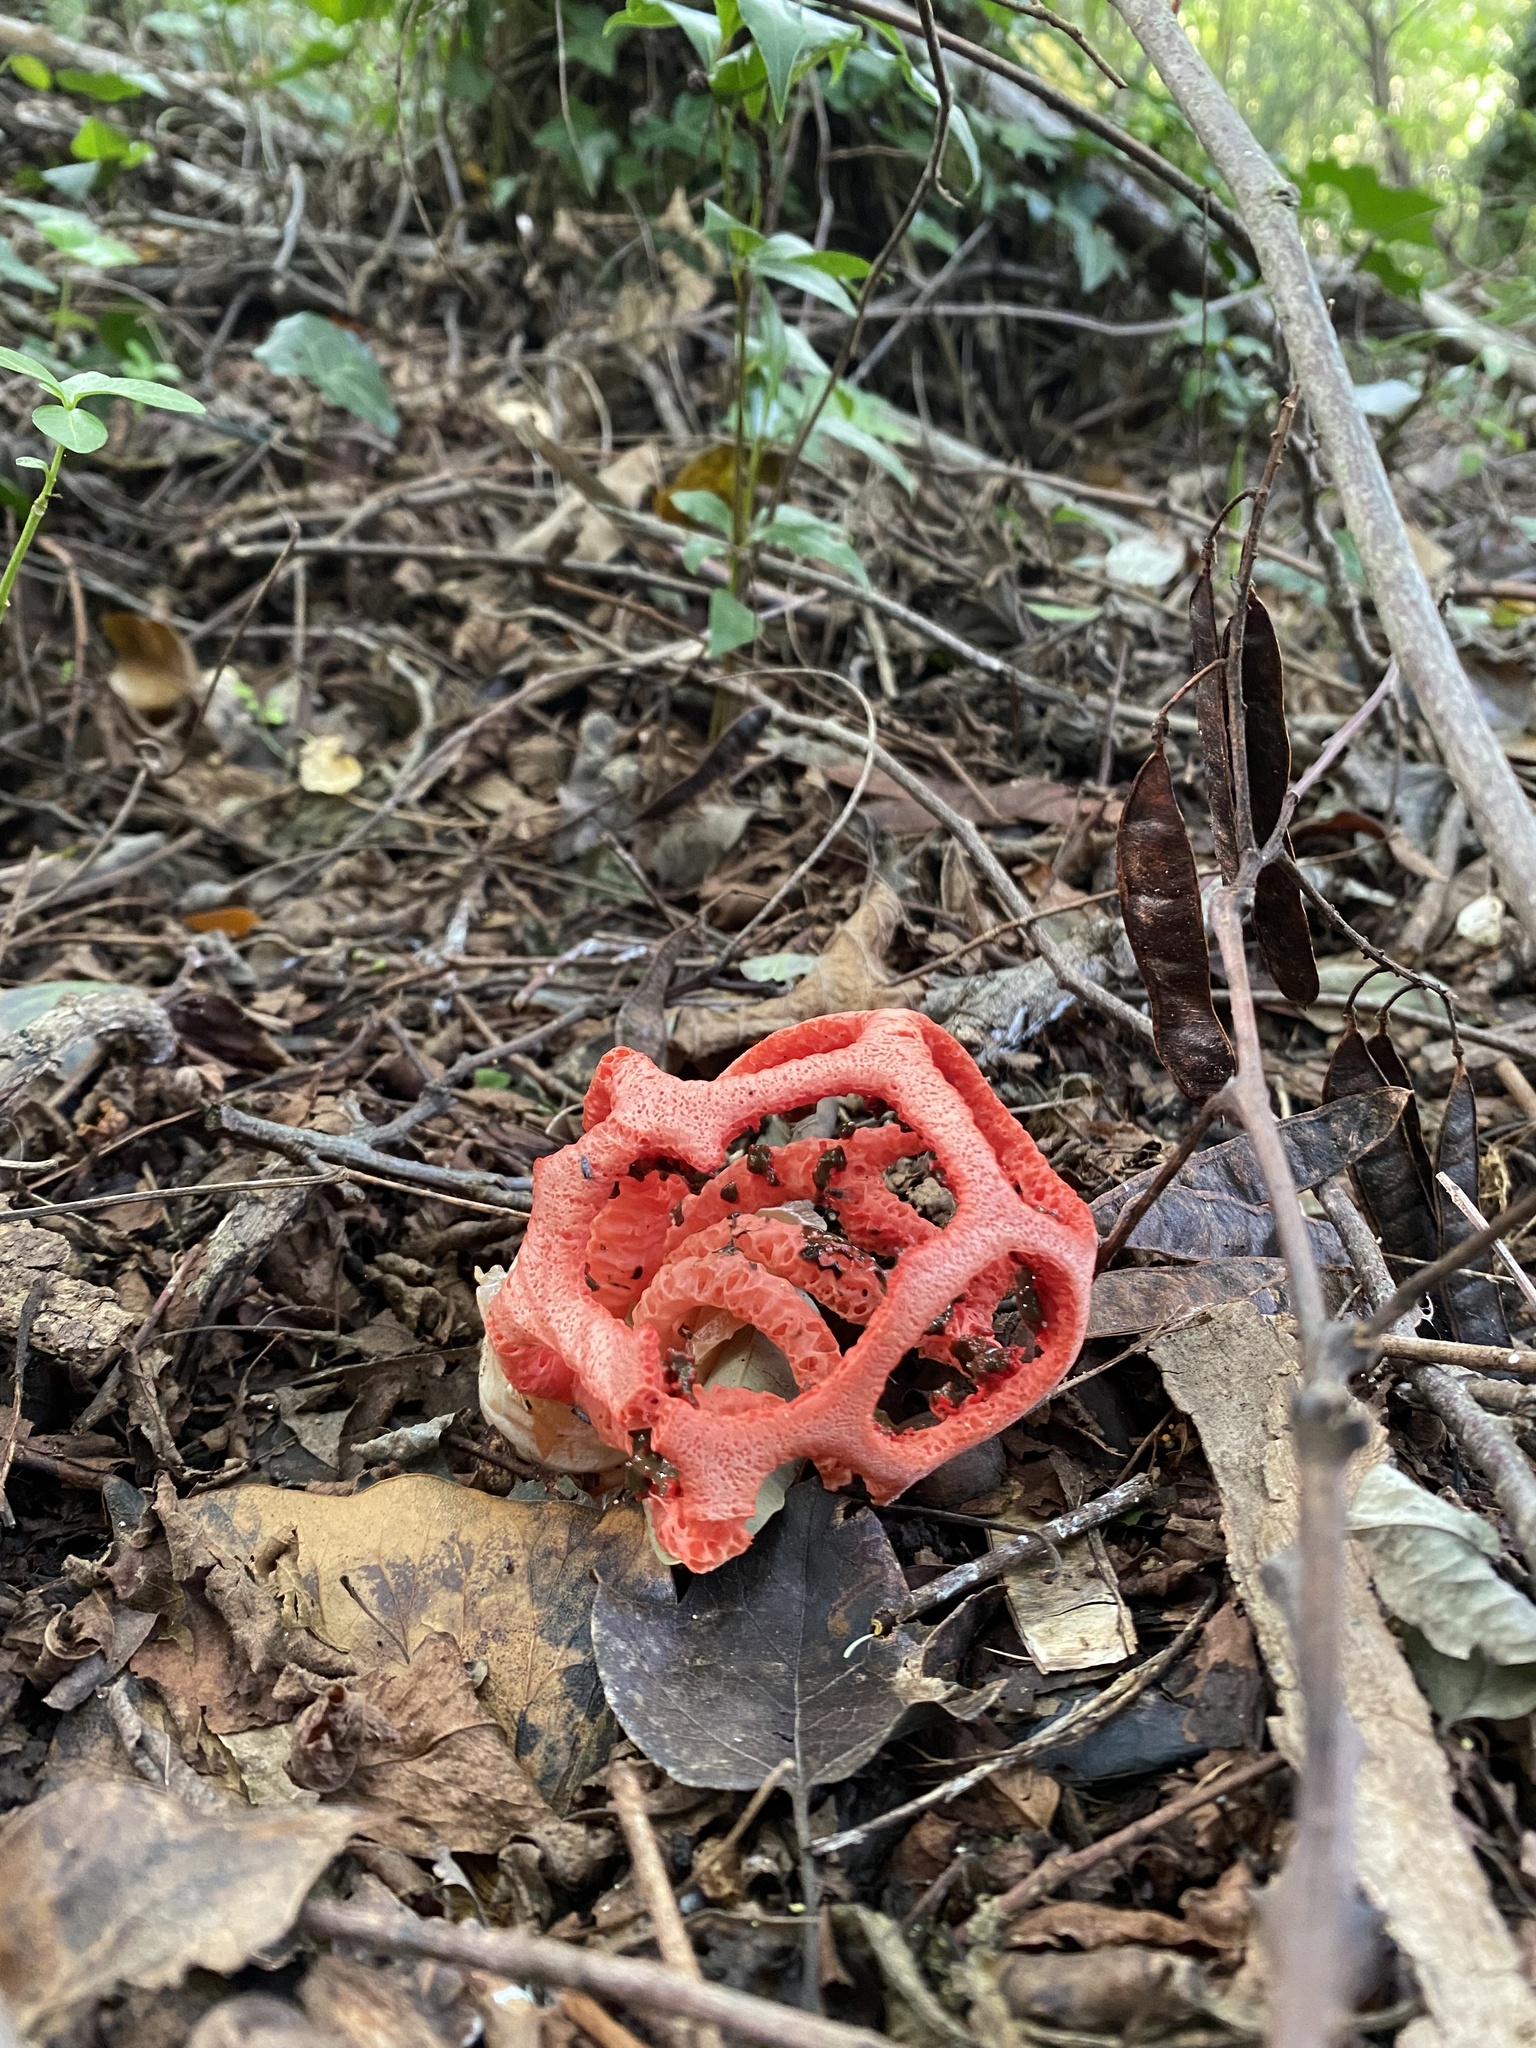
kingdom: Fungi
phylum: Basidiomycota
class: Agaricomycetes
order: Phallales
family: Phallaceae
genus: Clathrus
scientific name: Clathrus ruber
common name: Red cage
